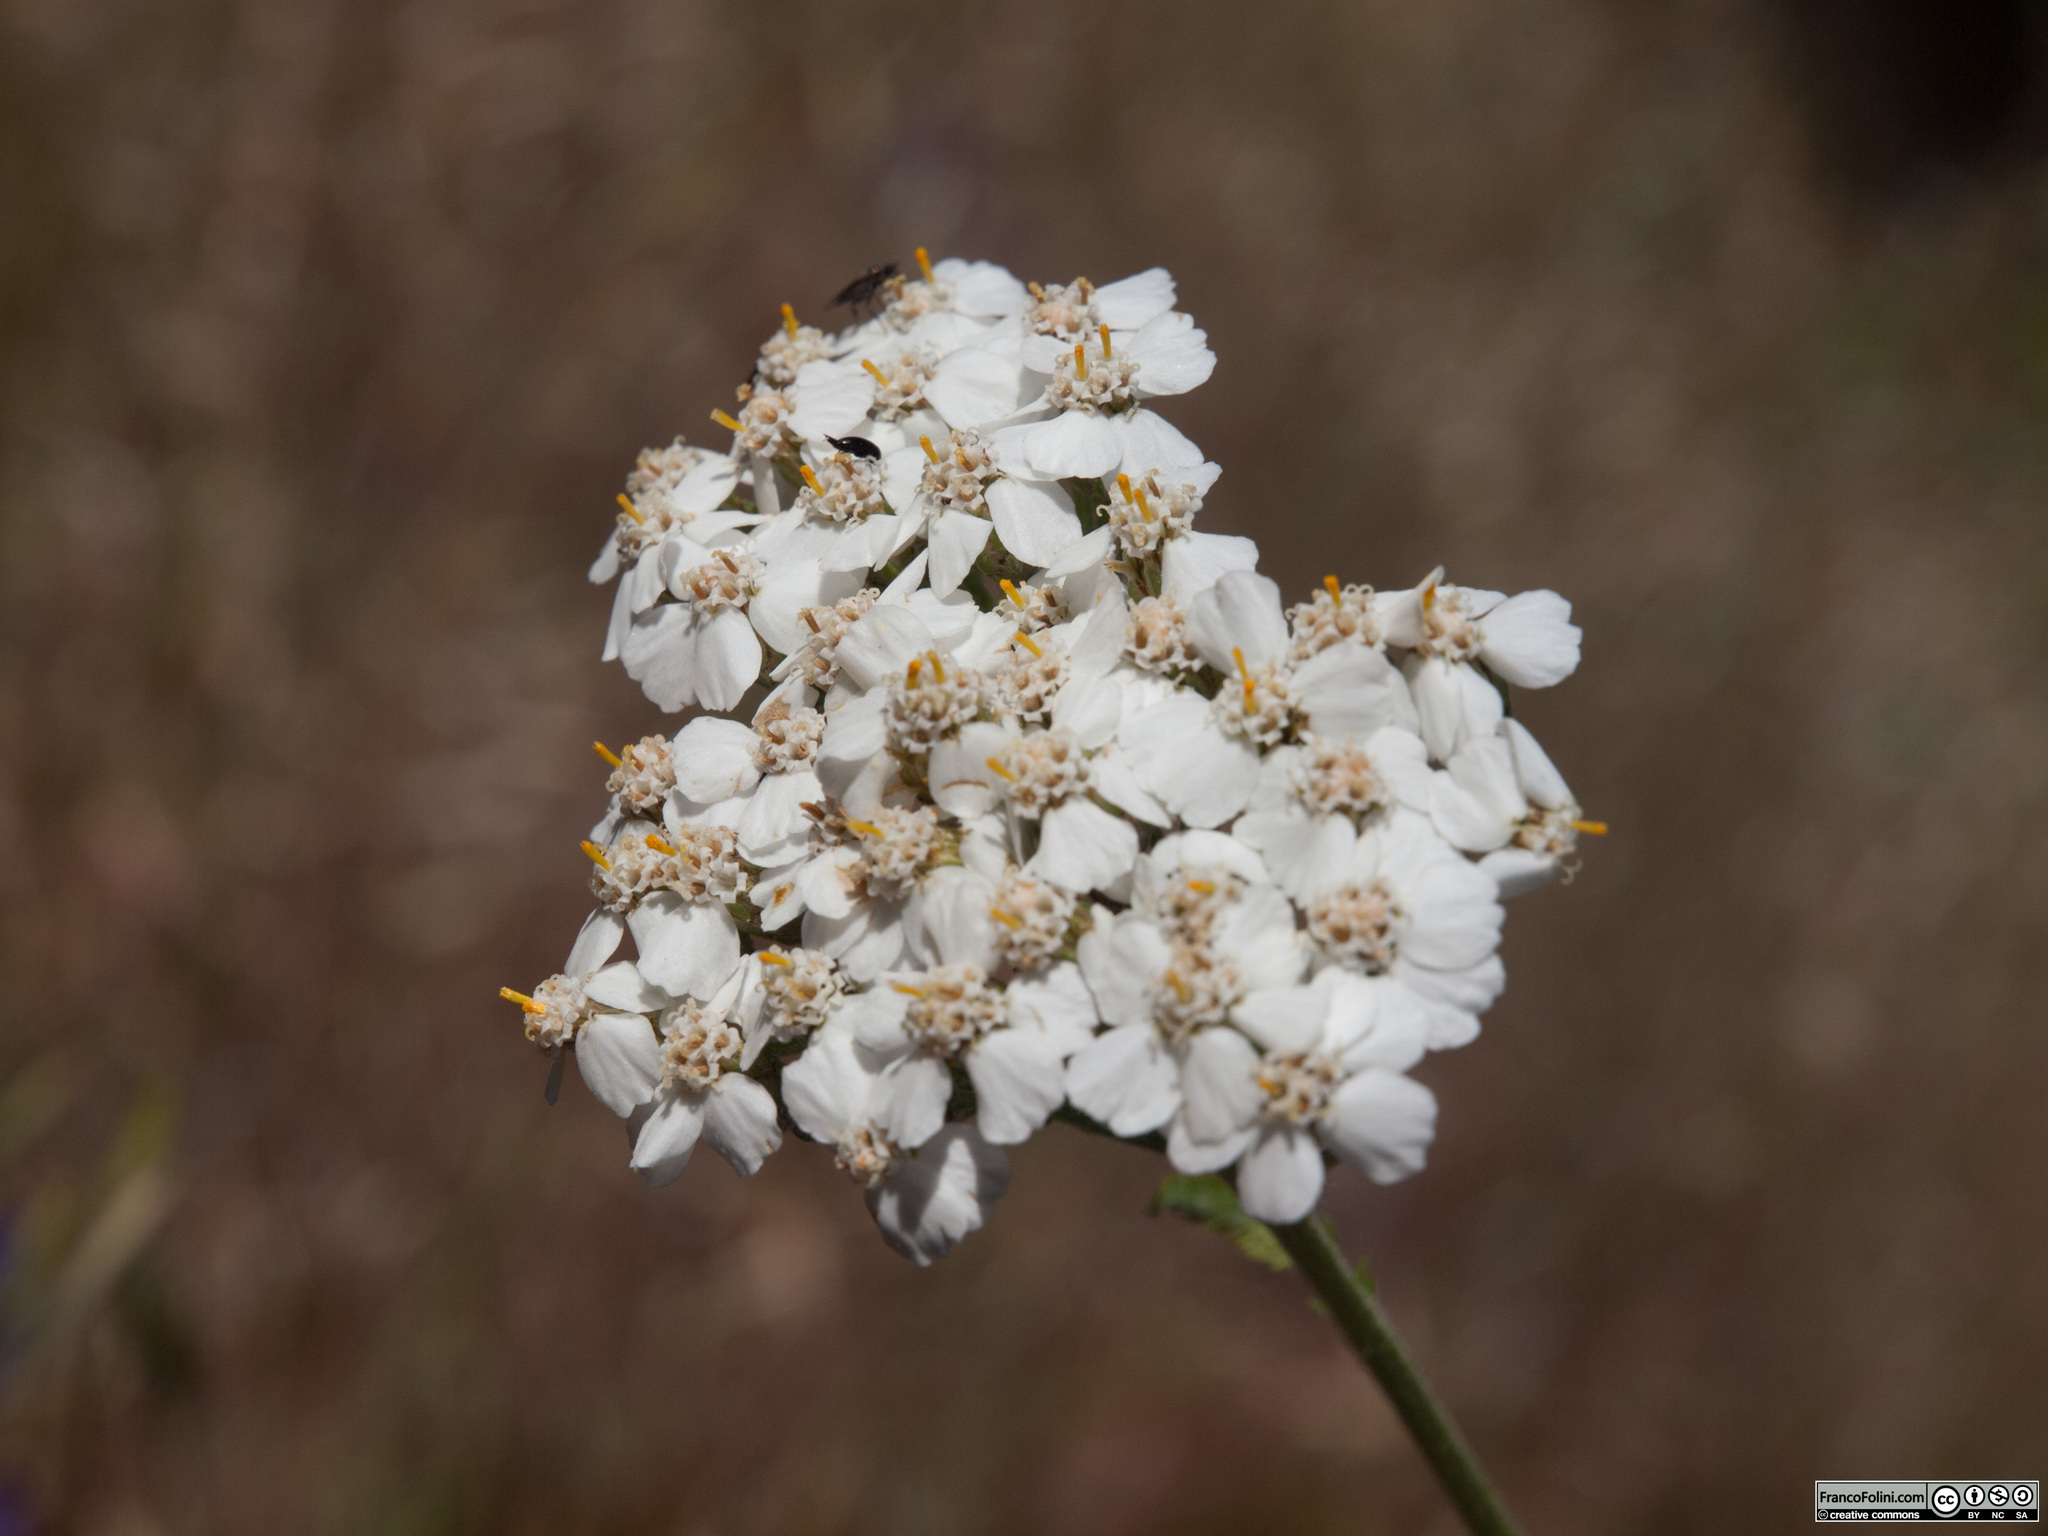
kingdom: Plantae
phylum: Tracheophyta
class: Magnoliopsida
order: Asterales
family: Asteraceae
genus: Achillea
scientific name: Achillea millefolium
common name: Yarrow
